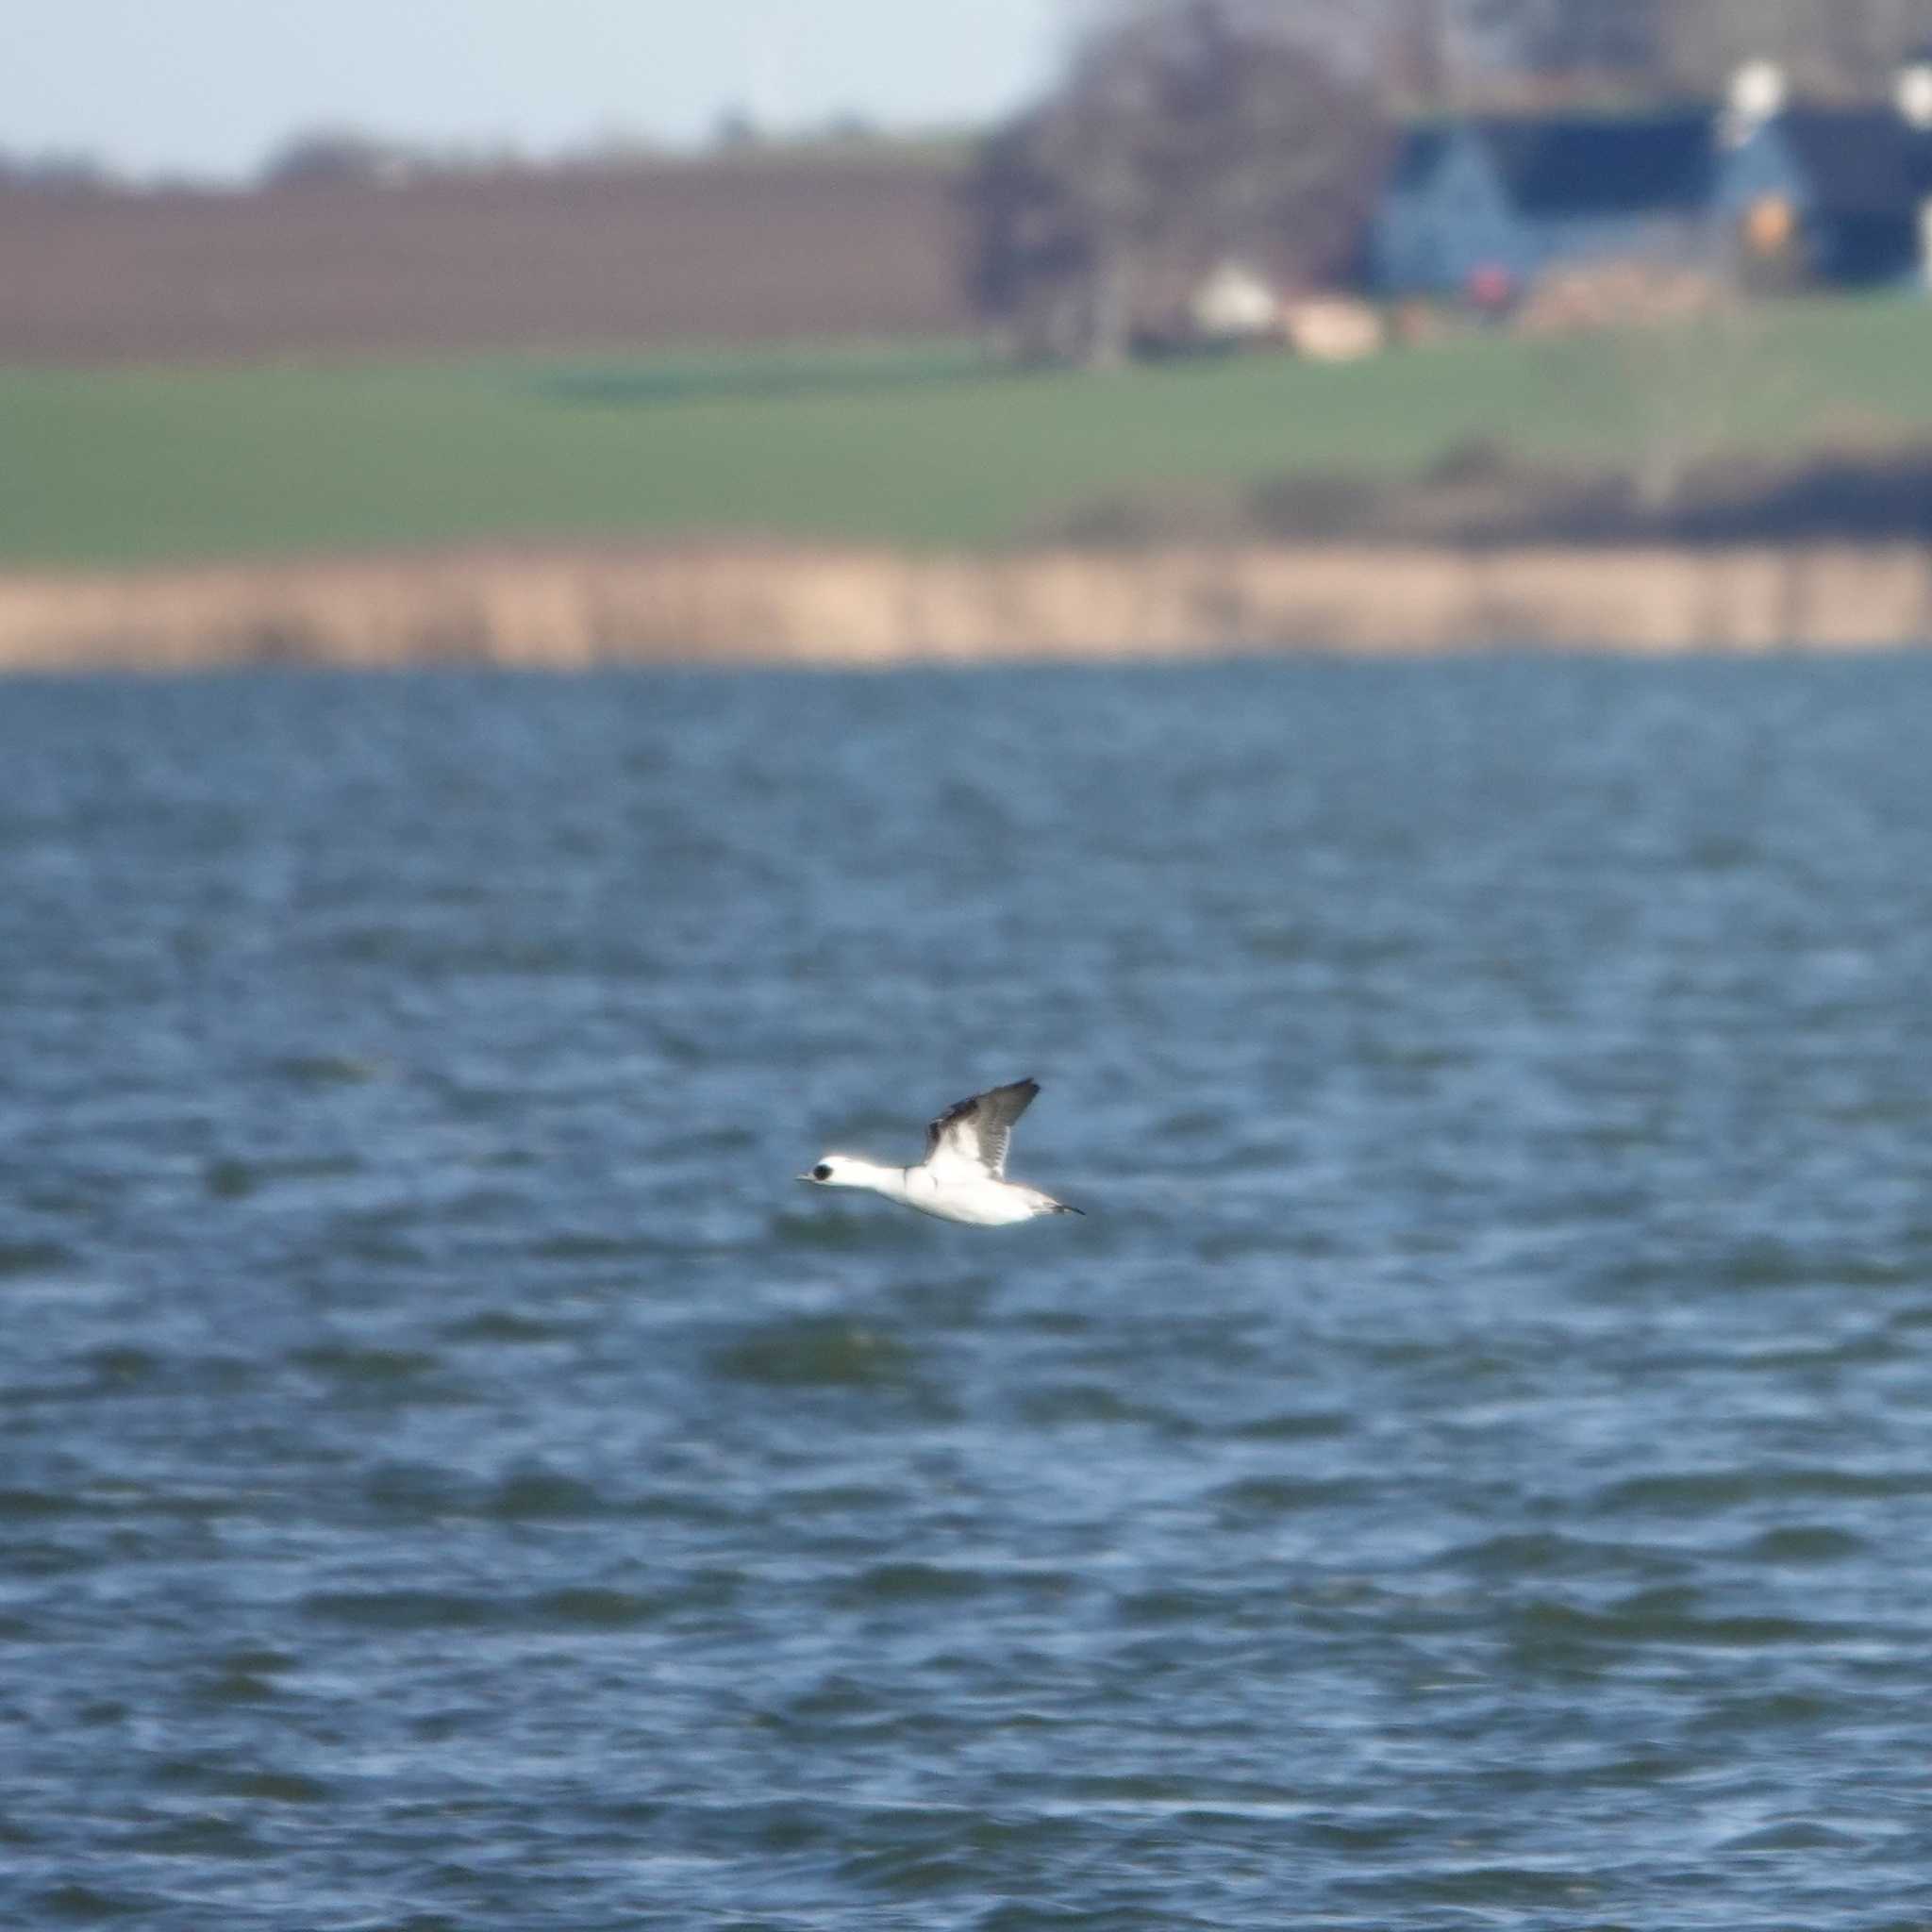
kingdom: Animalia
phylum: Chordata
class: Aves
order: Anseriformes
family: Anatidae
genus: Mergellus
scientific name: Mergellus albellus
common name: Smew
